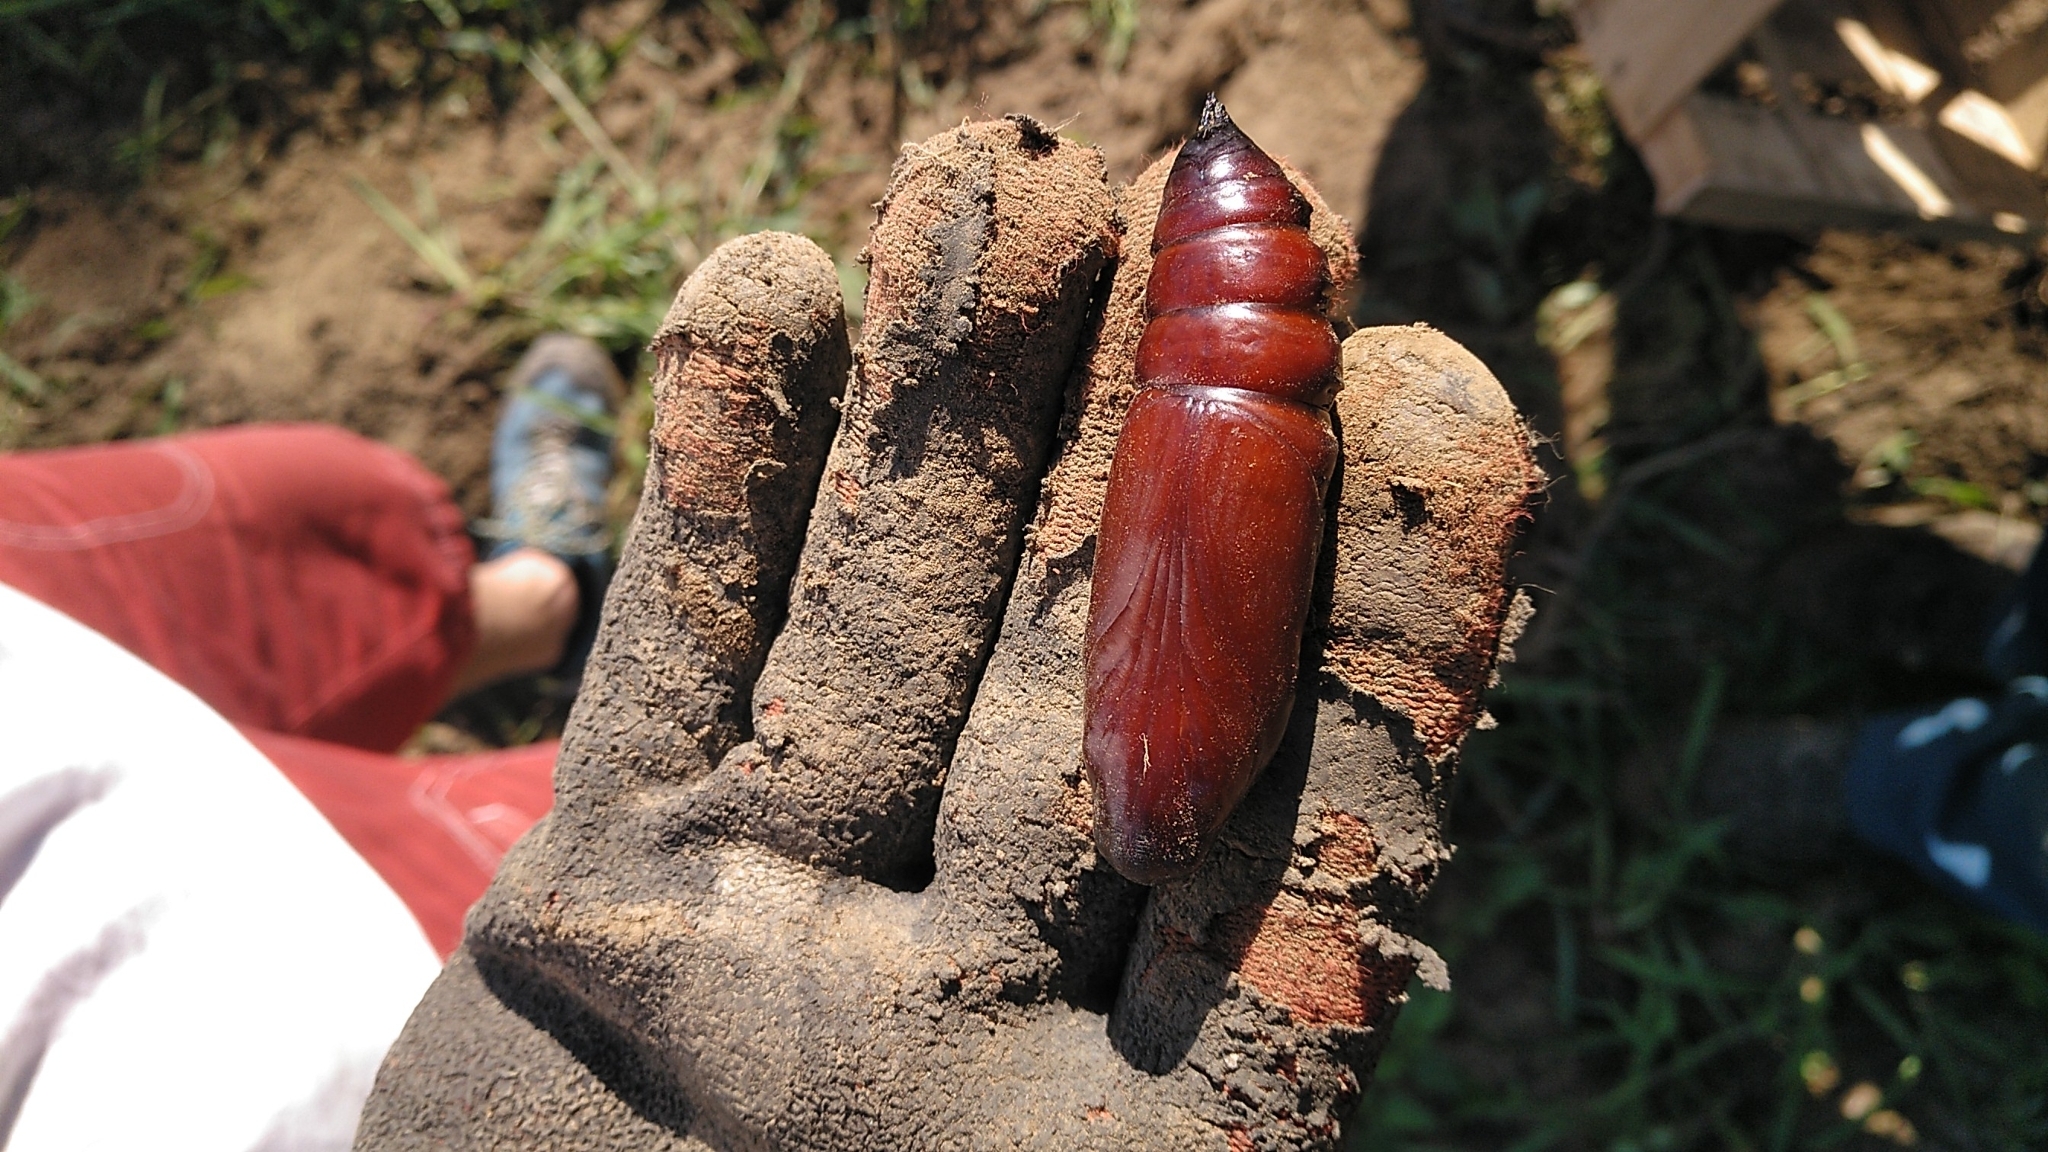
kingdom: Animalia
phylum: Arthropoda
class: Insecta
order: Lepidoptera
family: Sphingidae
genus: Acherontia
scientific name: Acherontia atropos
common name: Death's-head hawk moth
